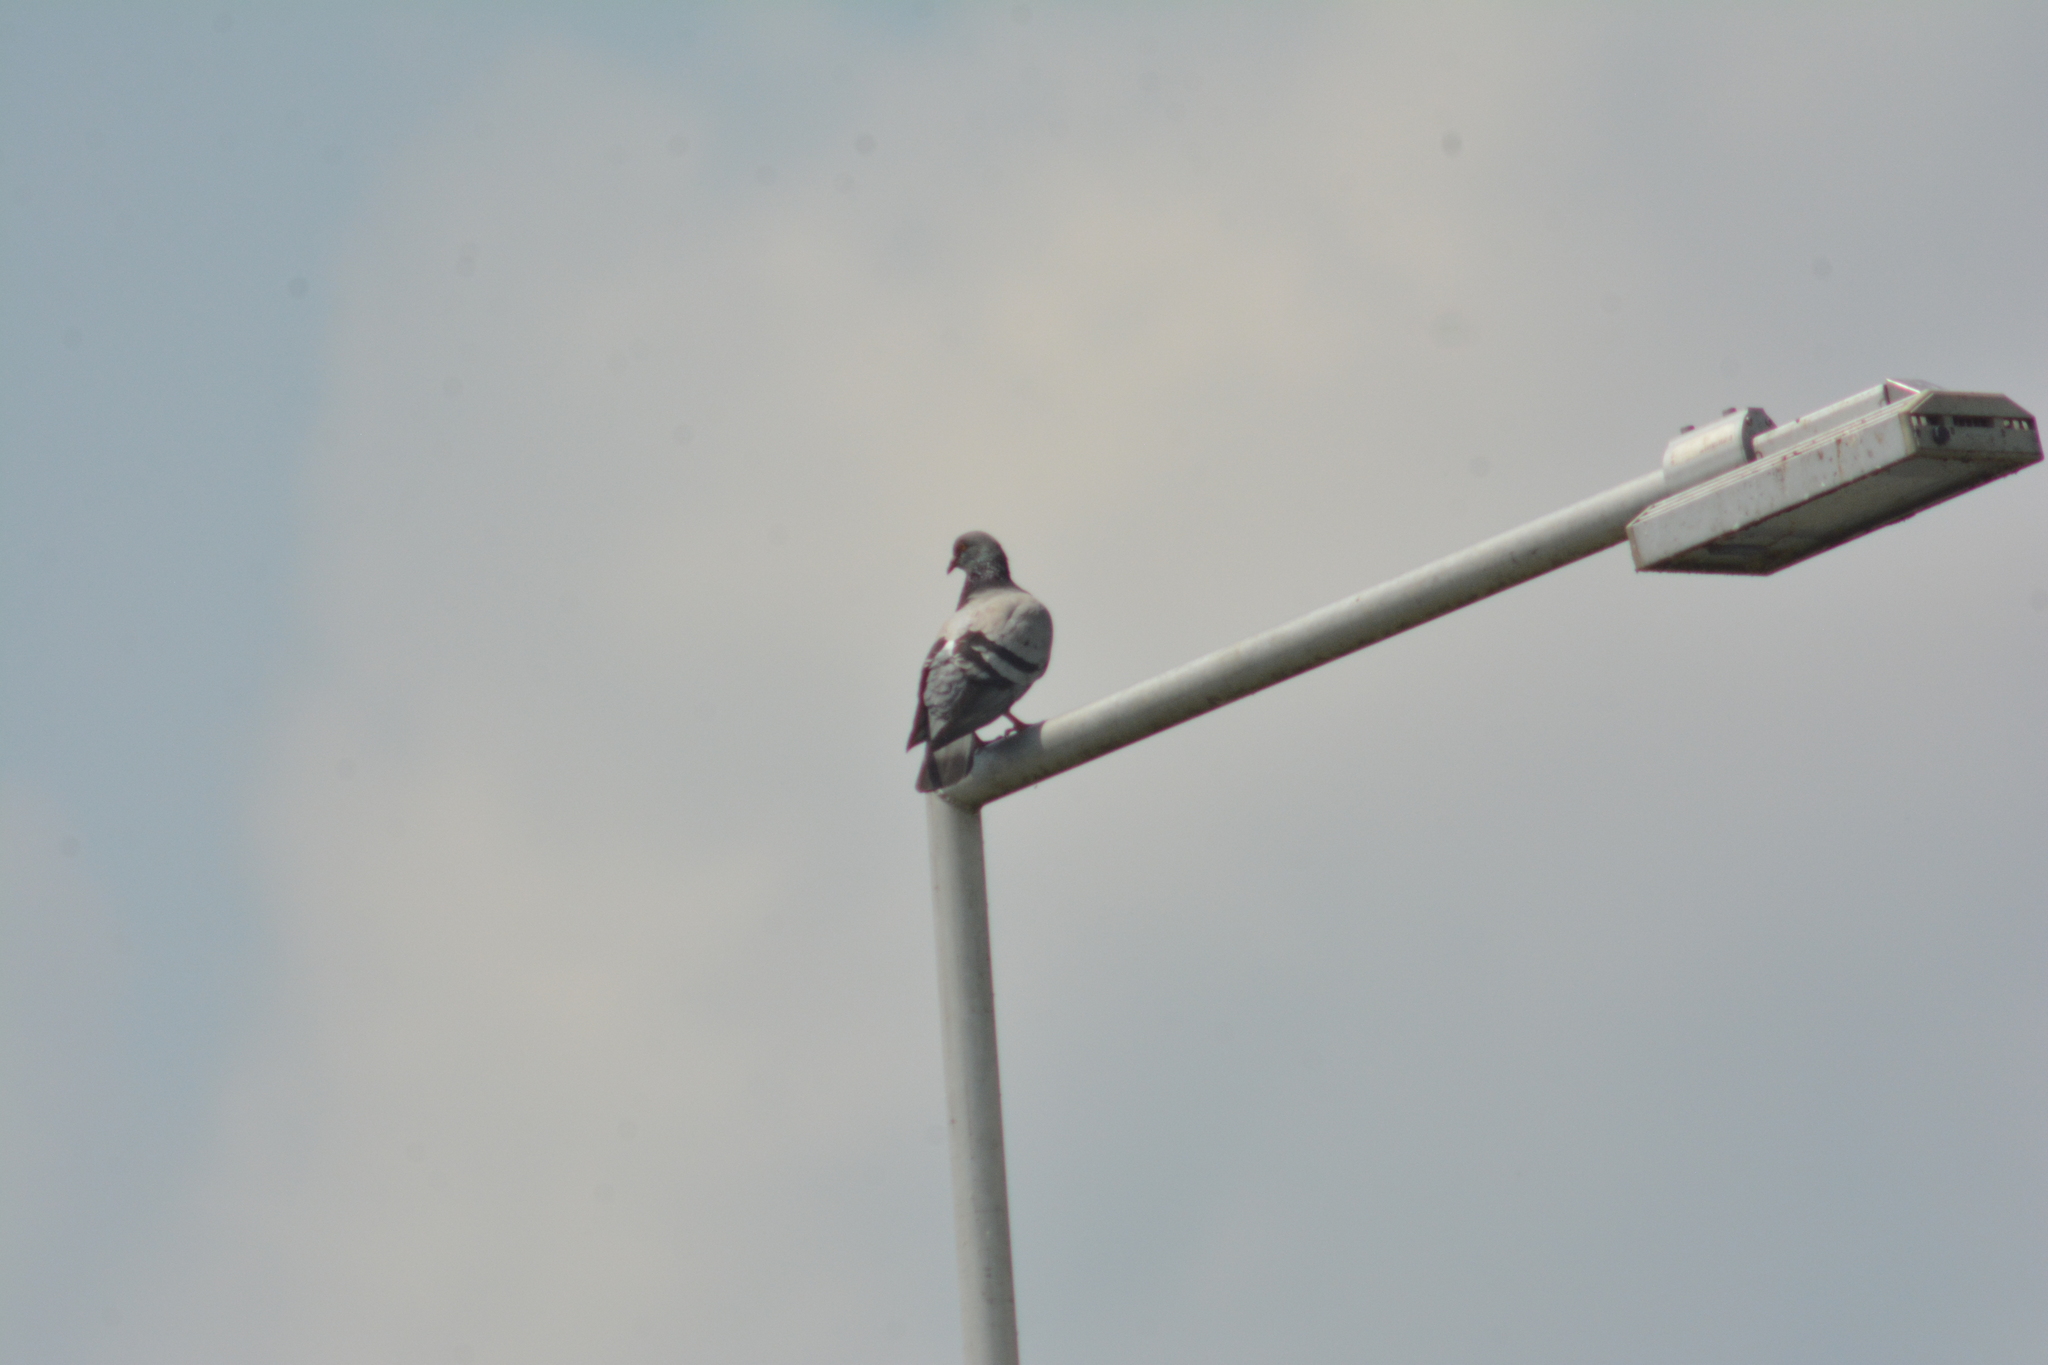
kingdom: Animalia
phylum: Chordata
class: Aves
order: Columbiformes
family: Columbidae
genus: Columba
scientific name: Columba livia
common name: Rock pigeon
